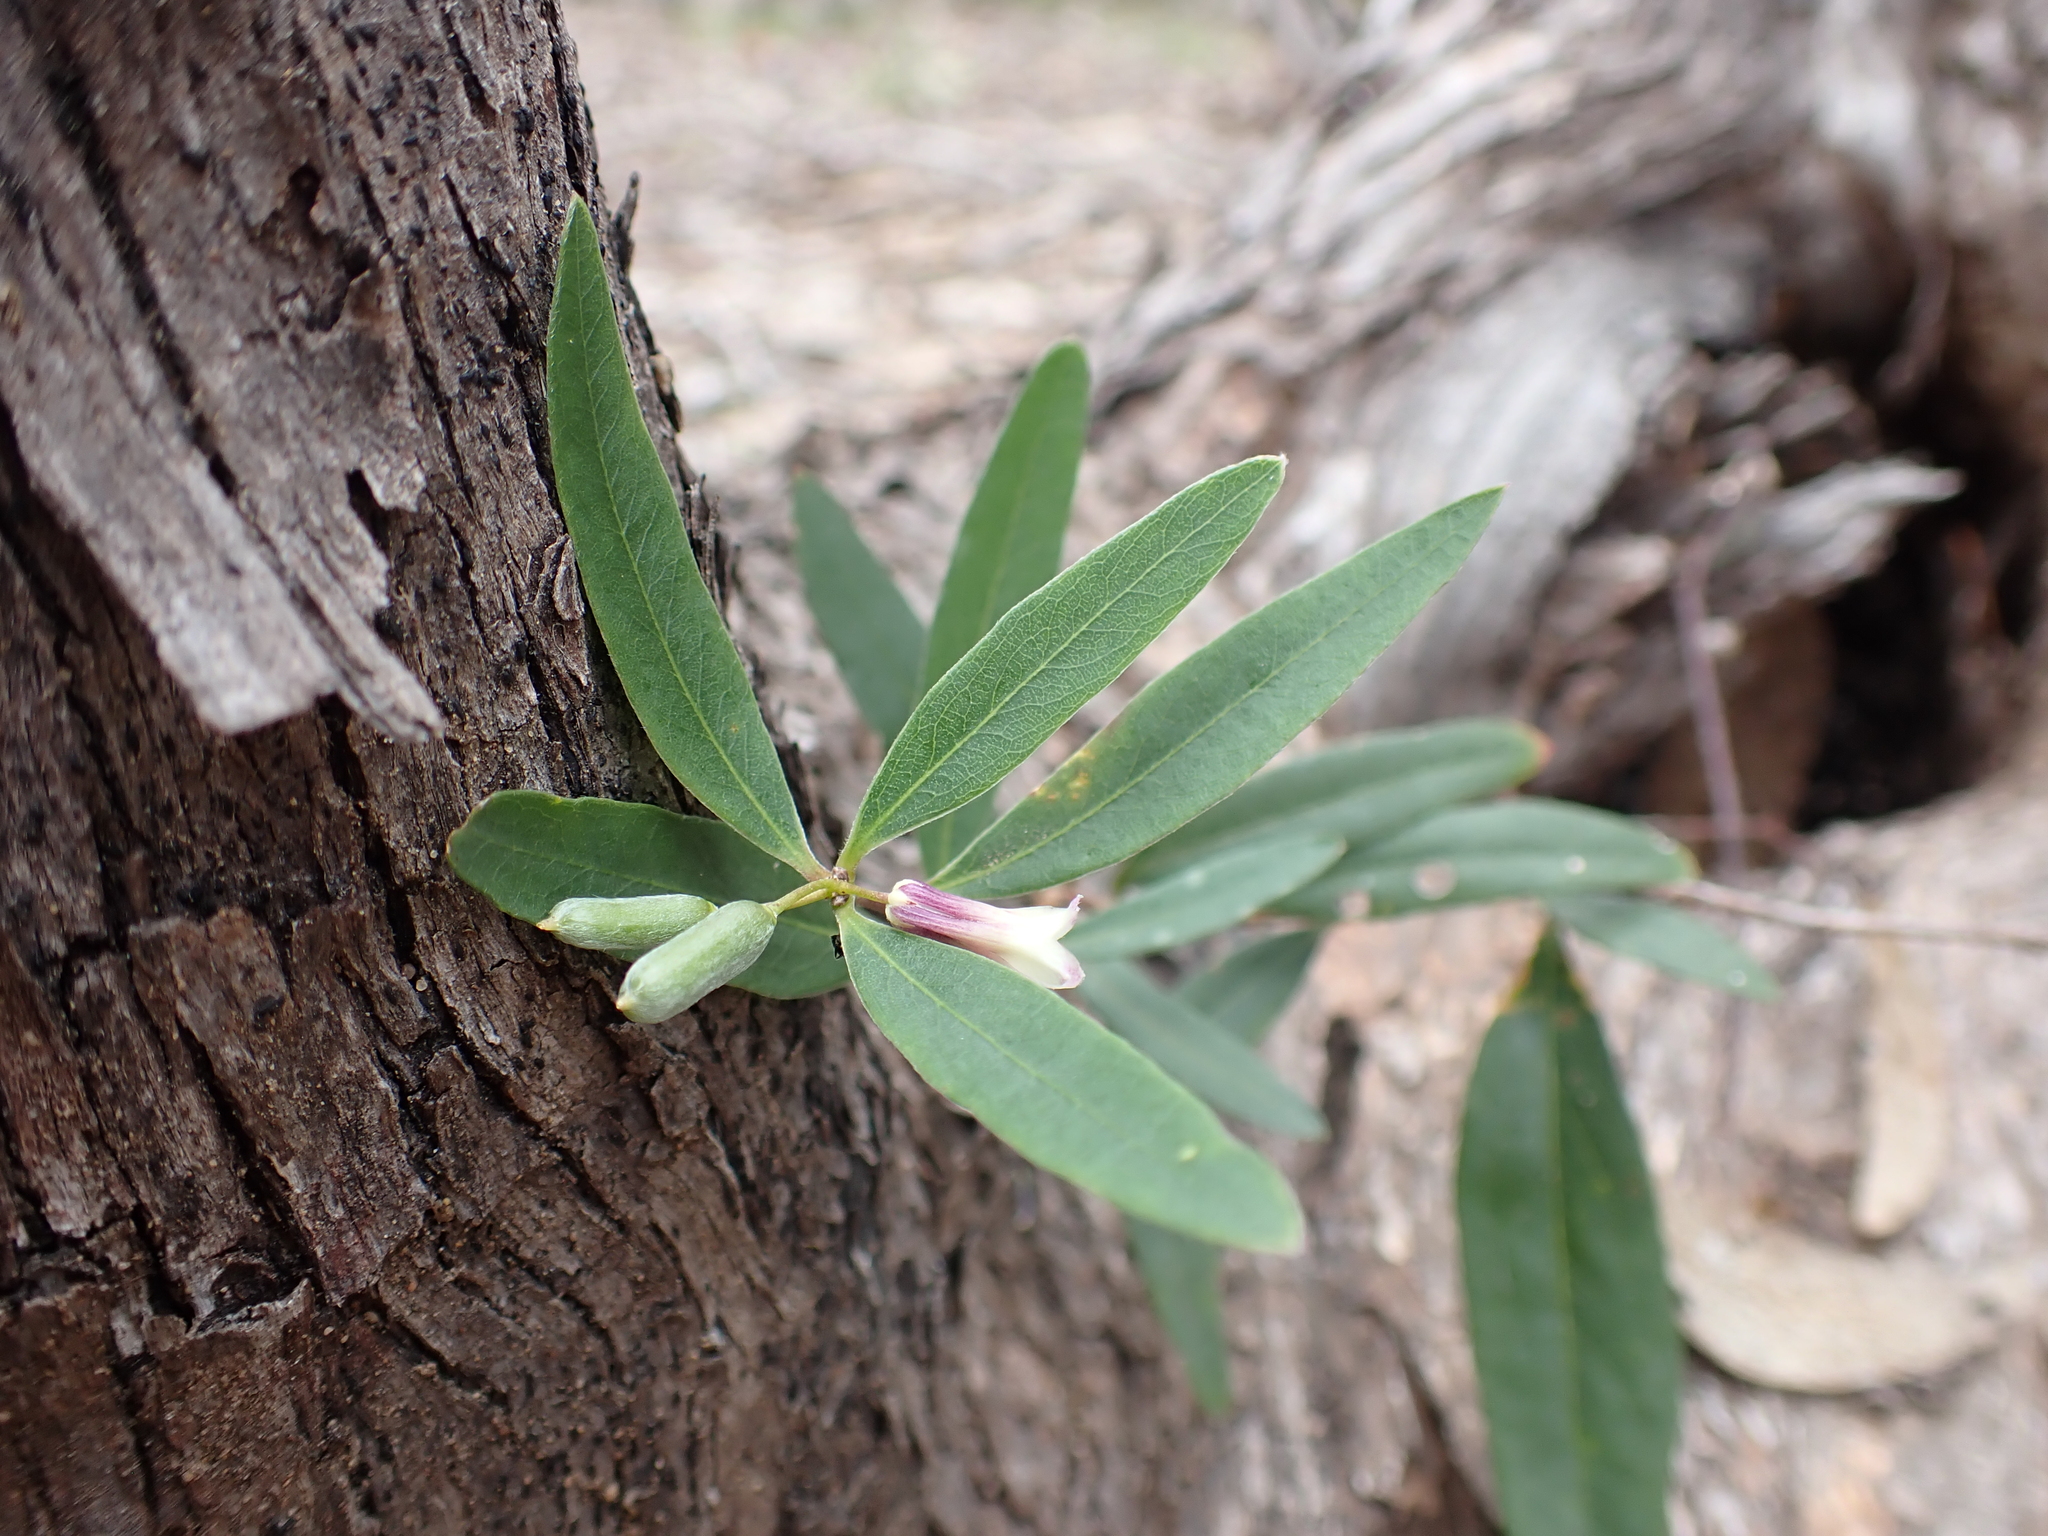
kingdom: Plantae
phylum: Tracheophyta
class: Magnoliopsida
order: Apiales
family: Pittosporaceae
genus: Billardiera
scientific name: Billardiera versicolor
